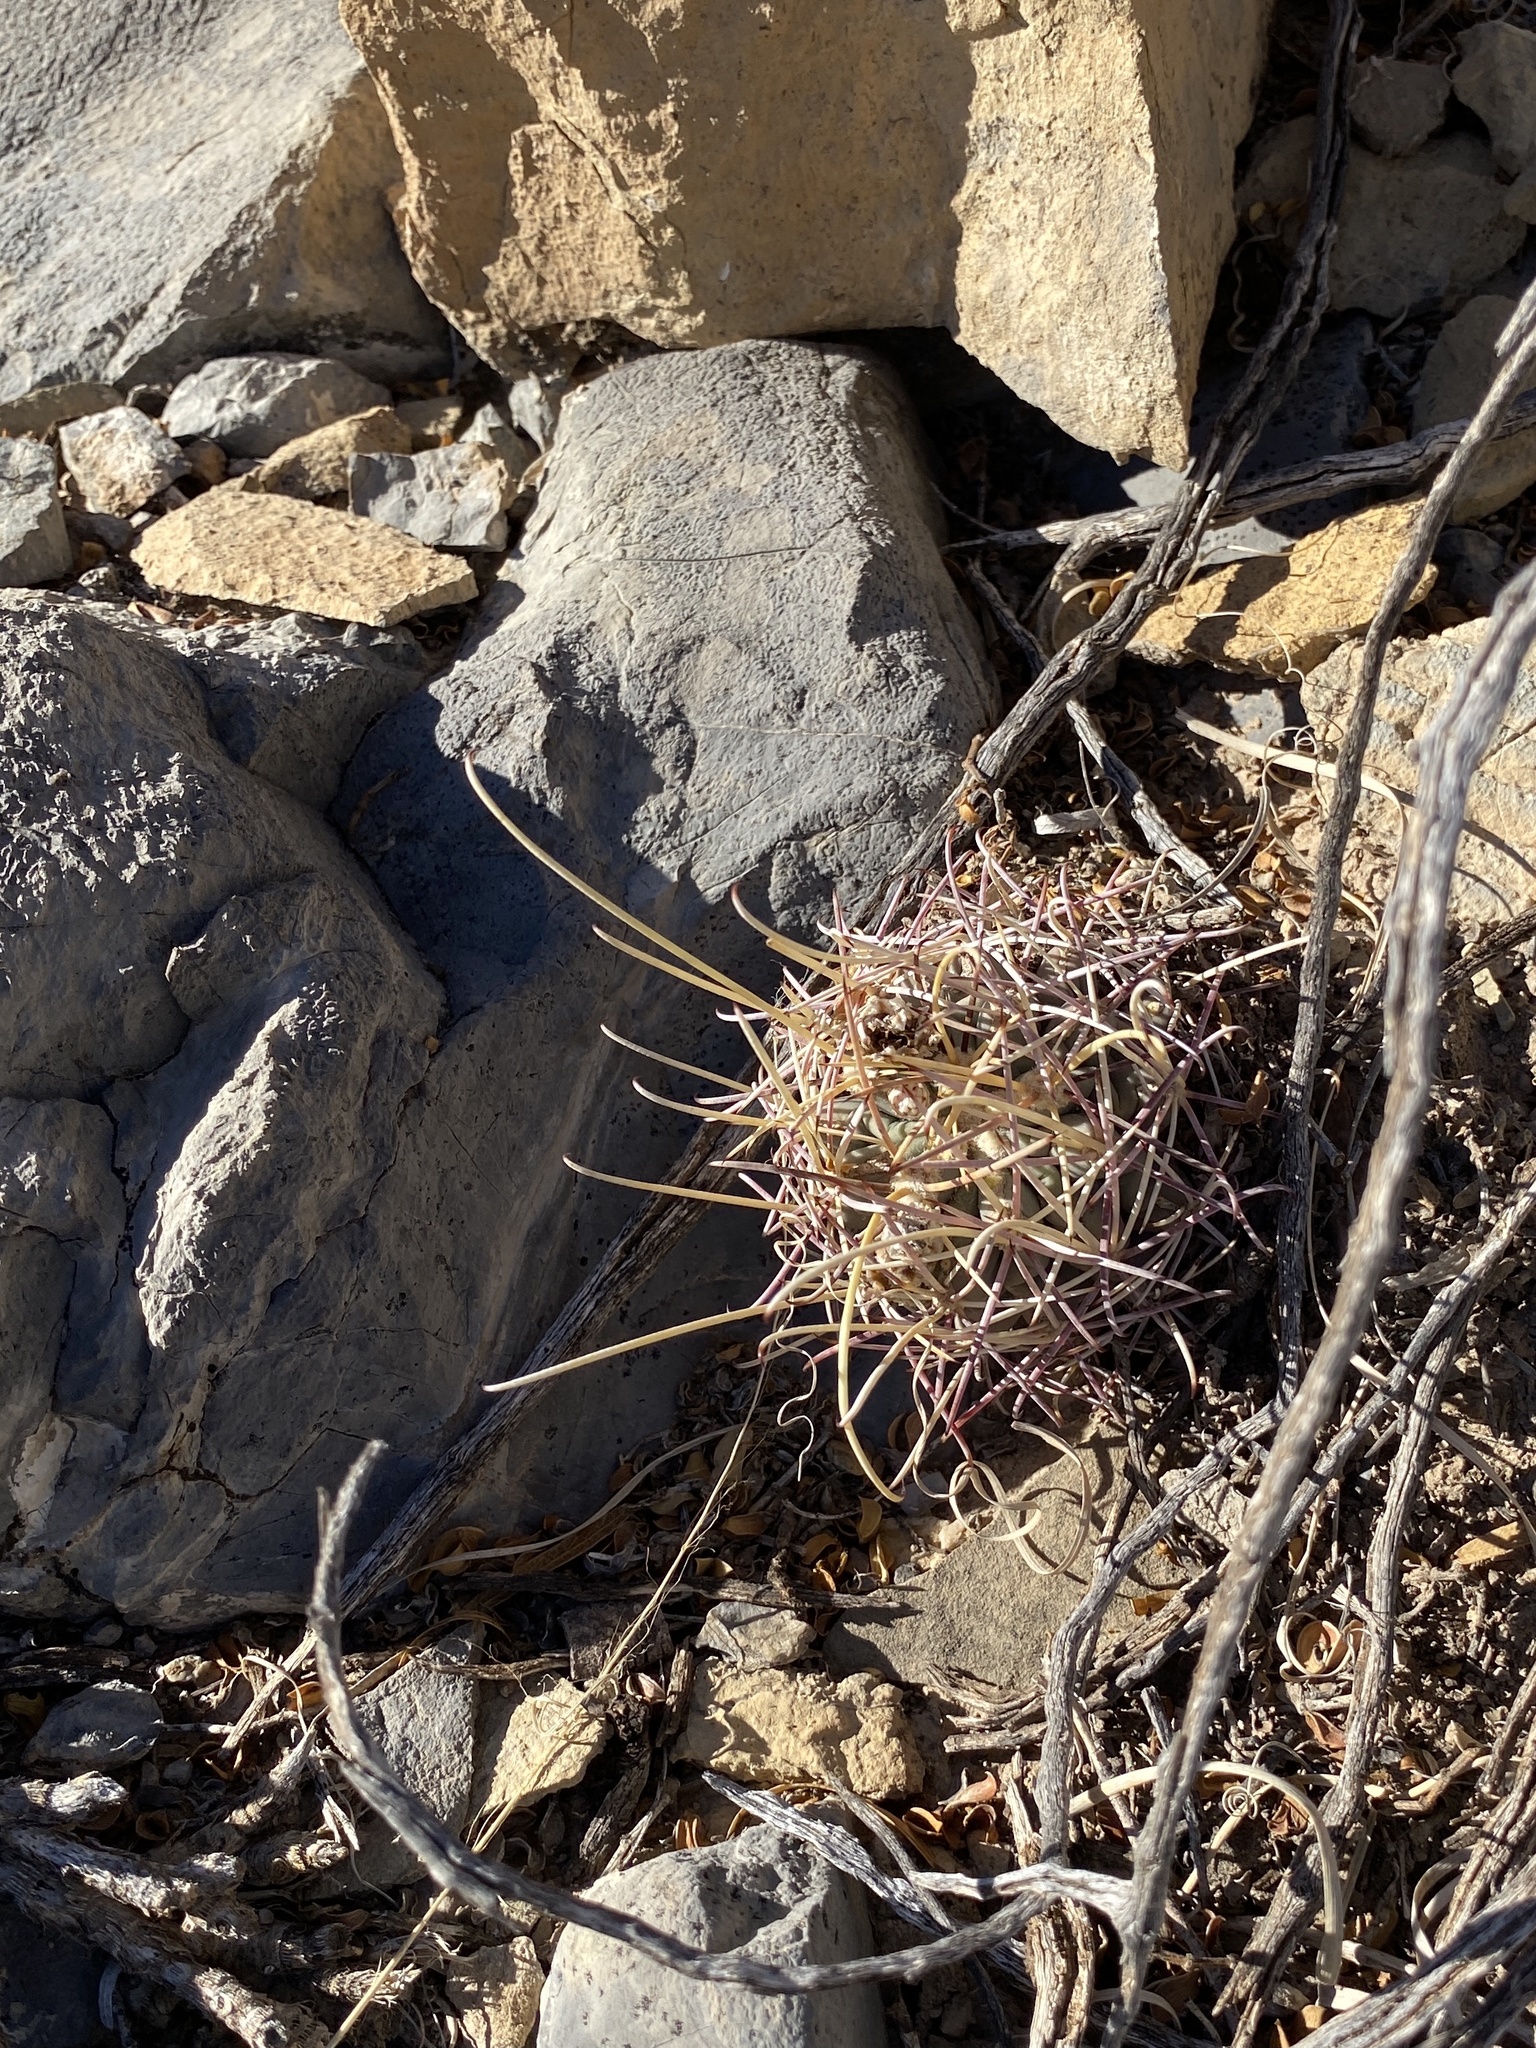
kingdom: Plantae
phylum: Tracheophyta
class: Magnoliopsida
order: Caryophyllales
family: Cactaceae
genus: Ferocactus
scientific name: Ferocactus uncinatus
